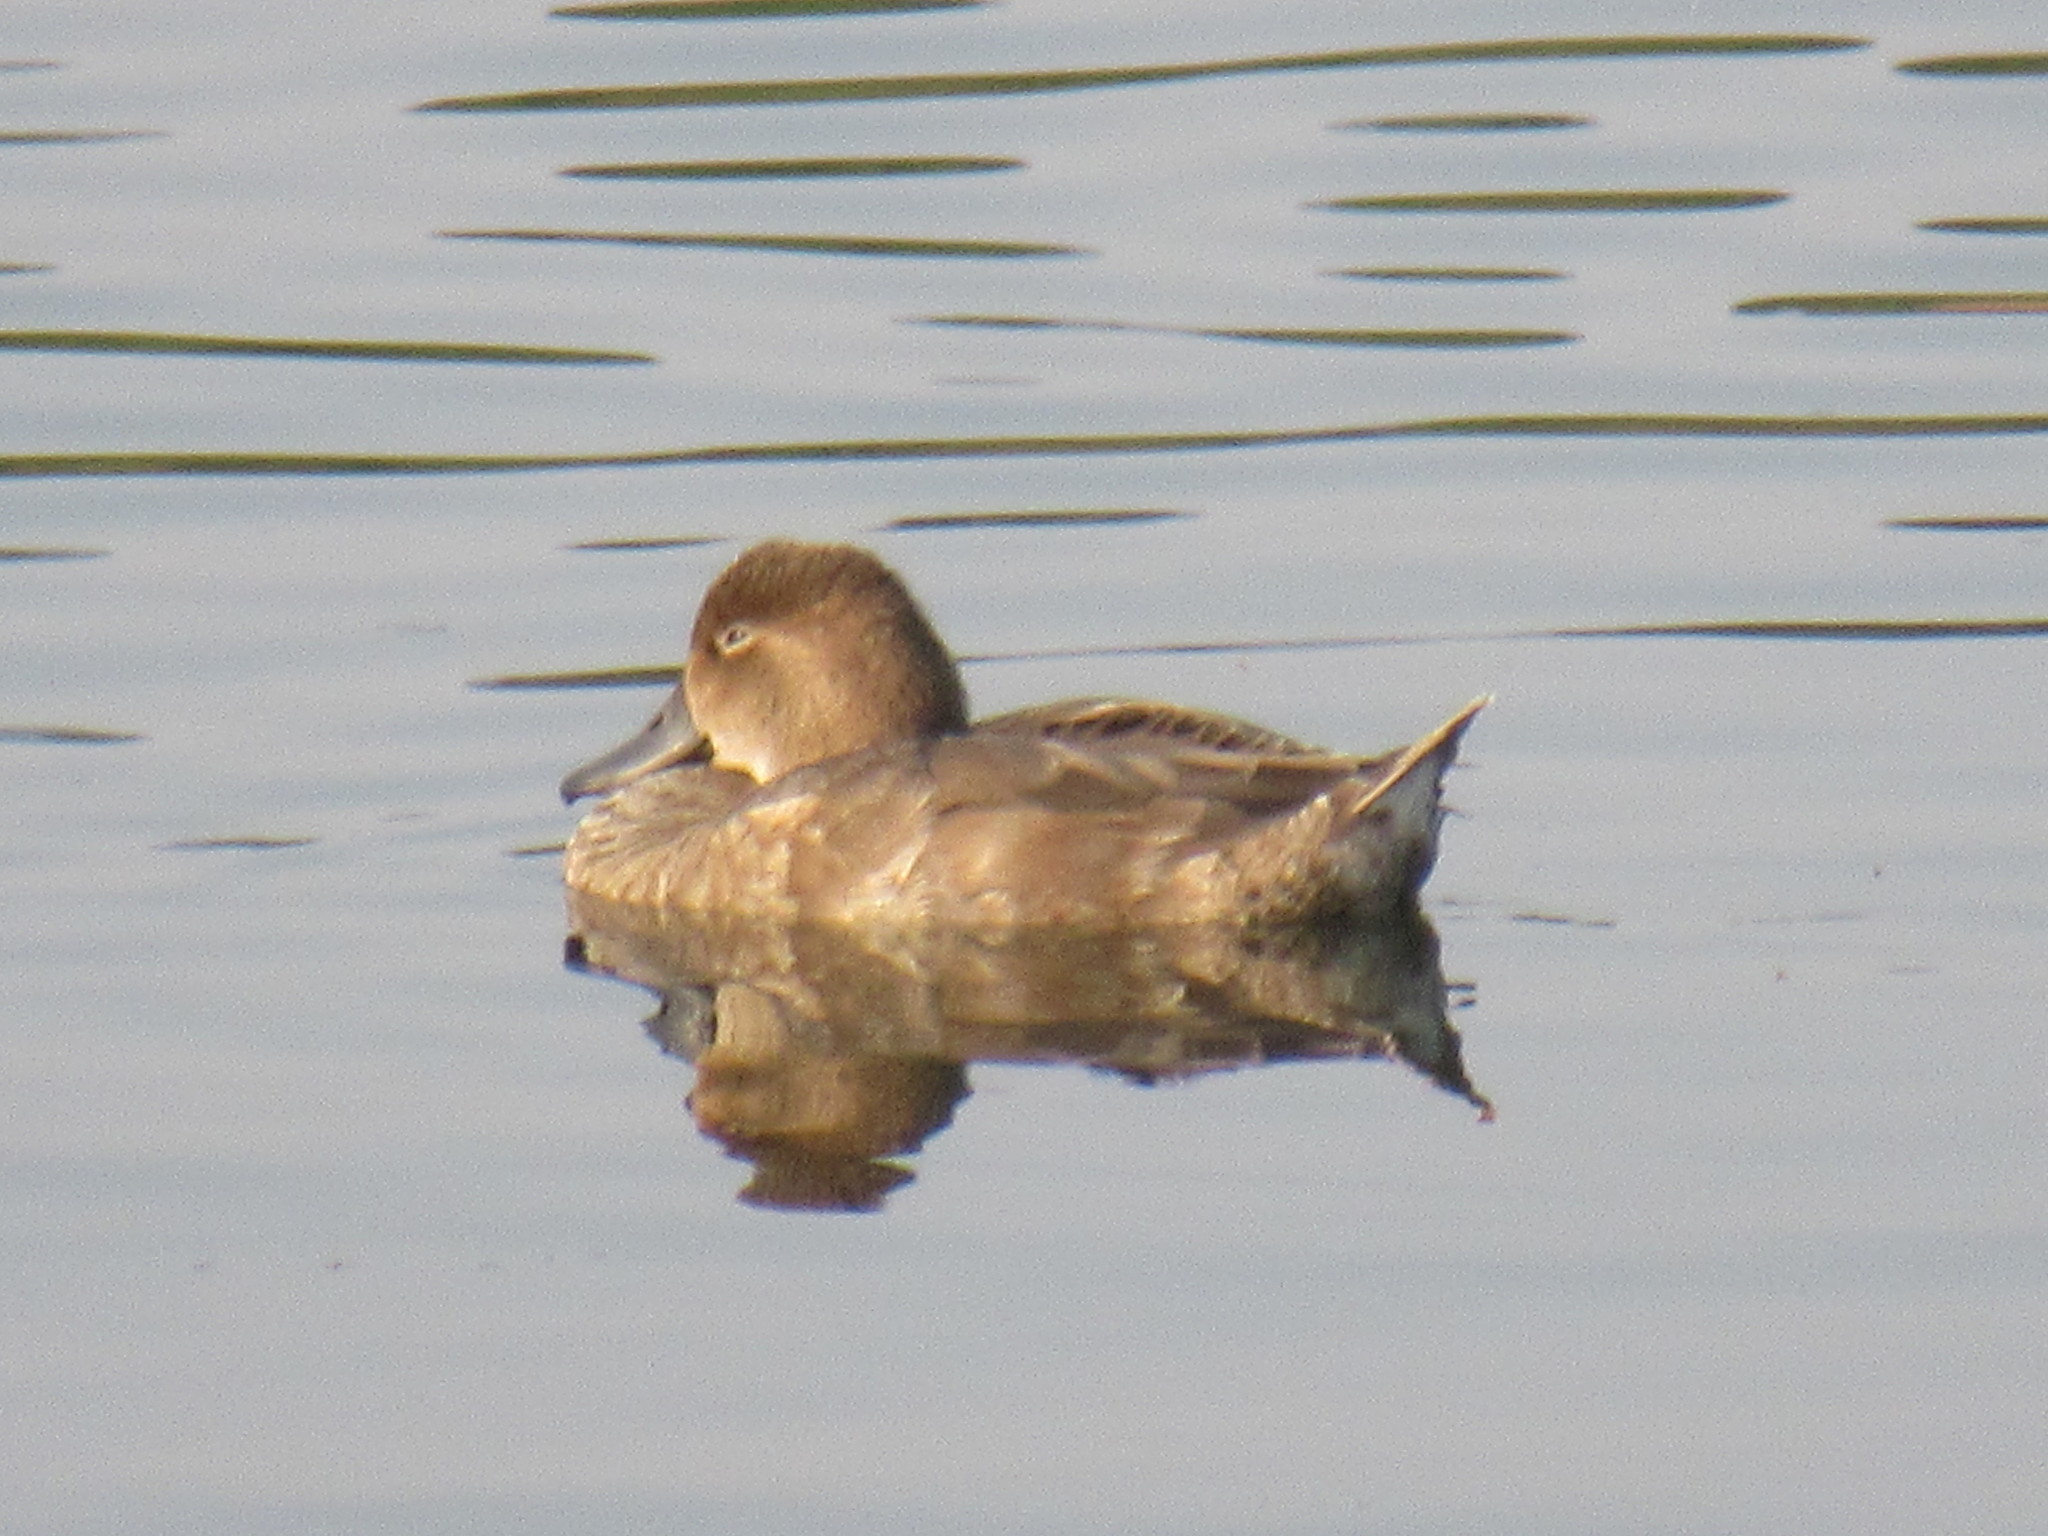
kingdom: Animalia
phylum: Chordata
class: Aves
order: Anseriformes
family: Anatidae
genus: Aythya
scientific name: Aythya americana
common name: Redhead
